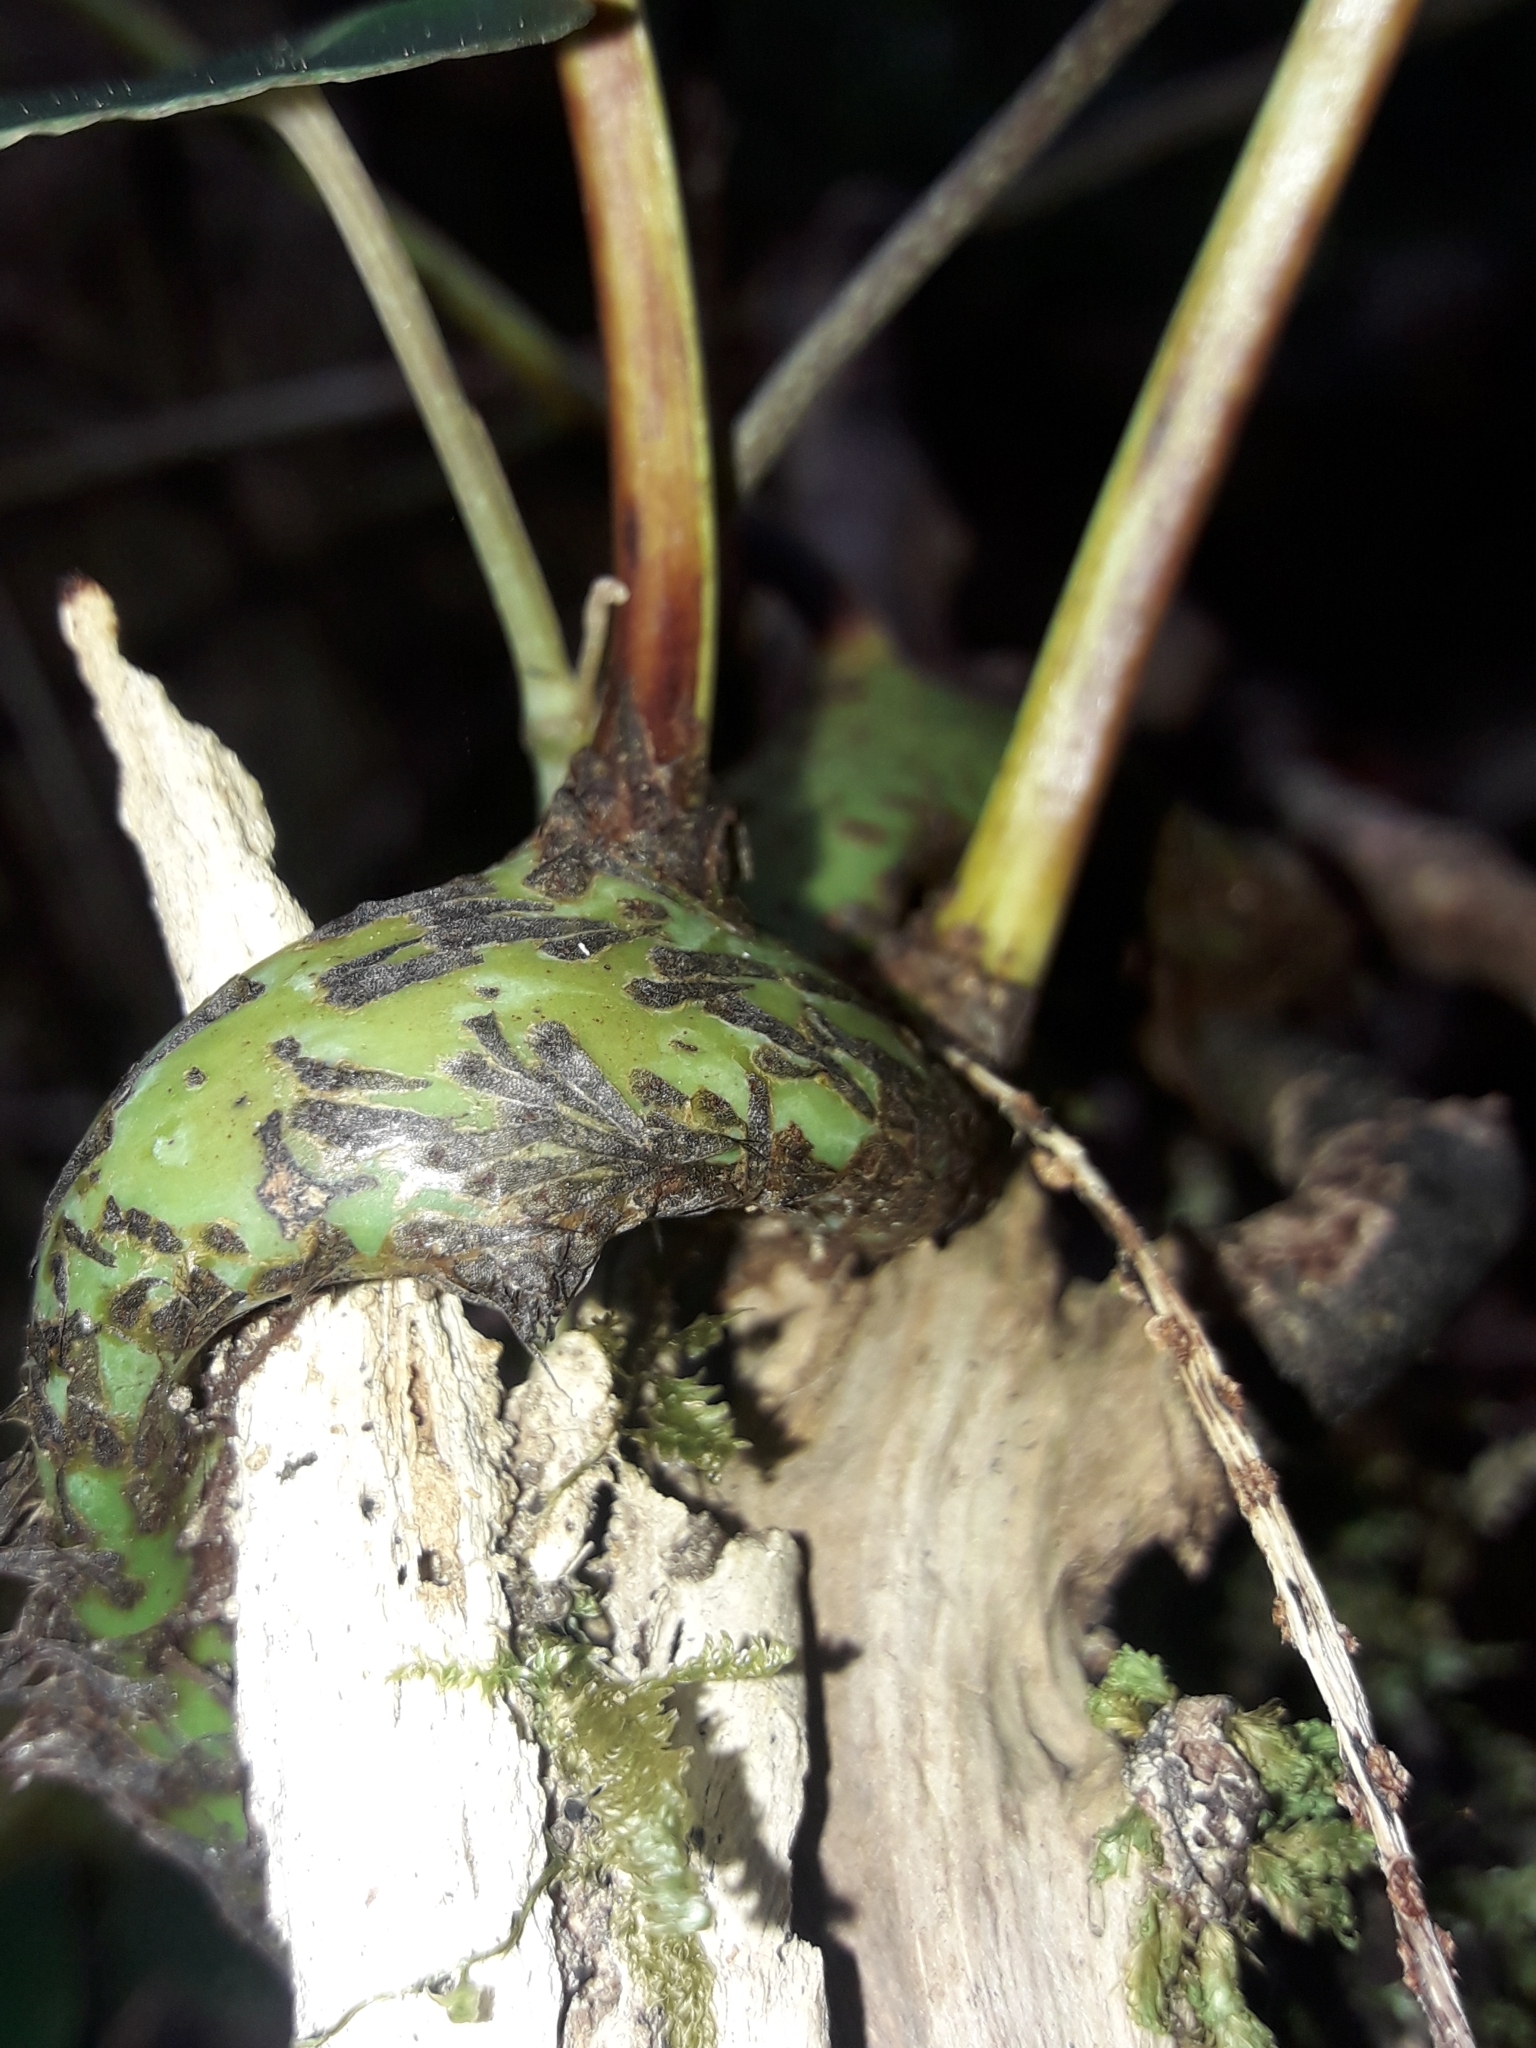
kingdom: Plantae
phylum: Tracheophyta
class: Polypodiopsida
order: Polypodiales
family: Polypodiaceae
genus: Lecanopteris
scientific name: Lecanopteris latilobata
